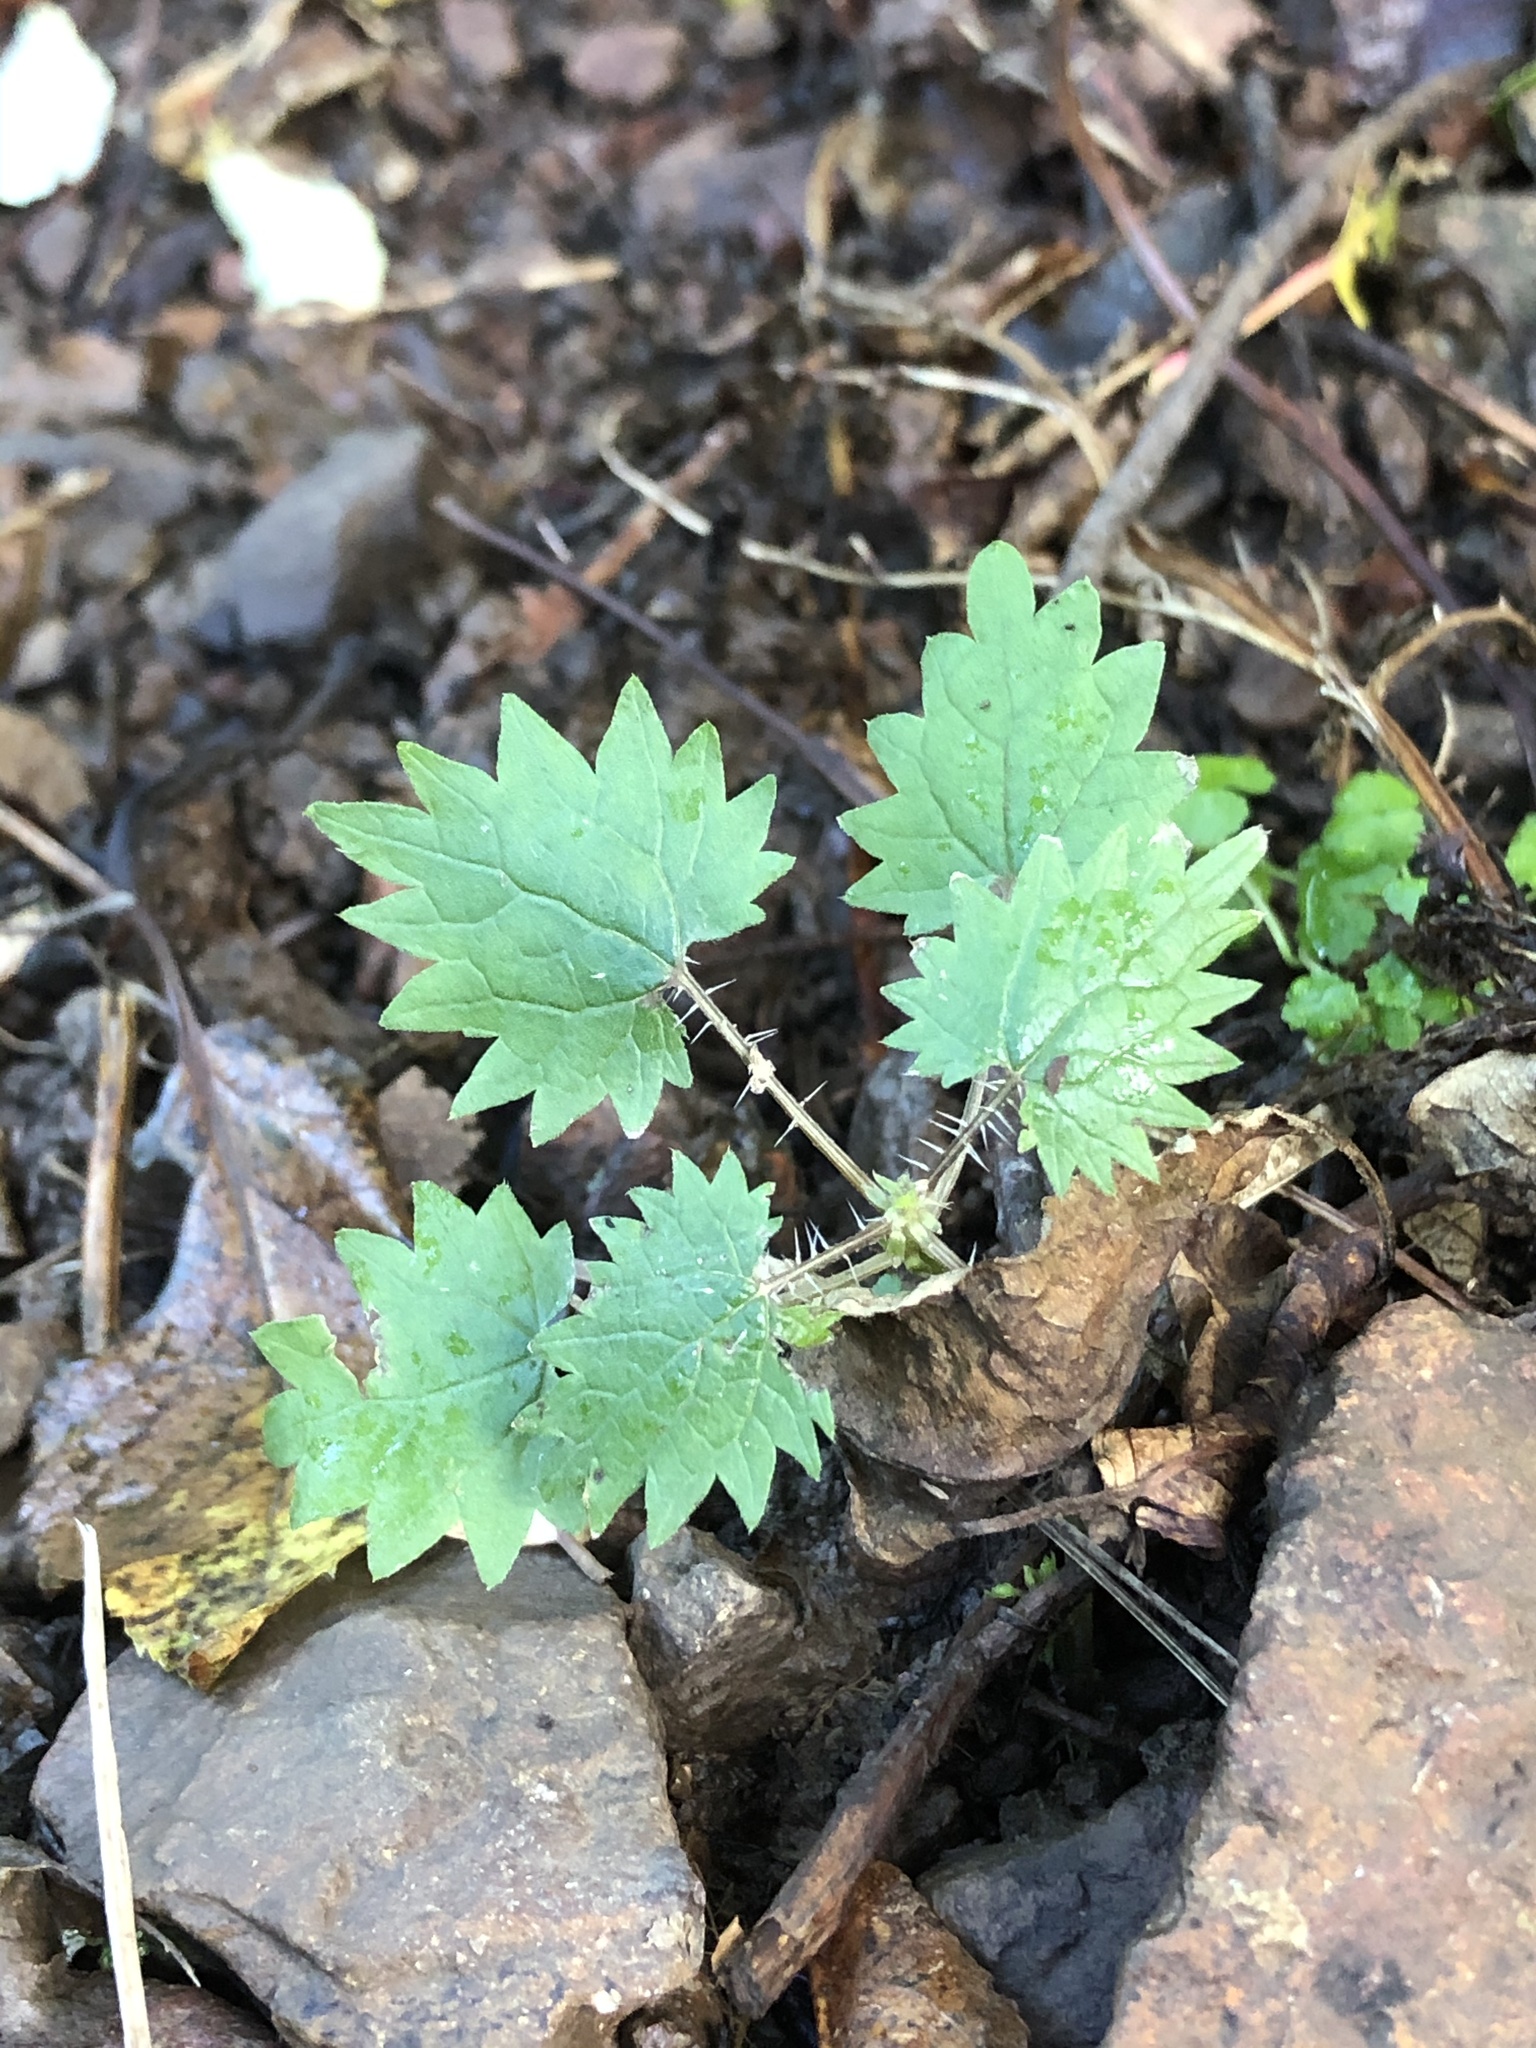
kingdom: Plantae
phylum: Tracheophyta
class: Magnoliopsida
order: Rosales
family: Urticaceae
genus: Urtica
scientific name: Urtica sykesii
